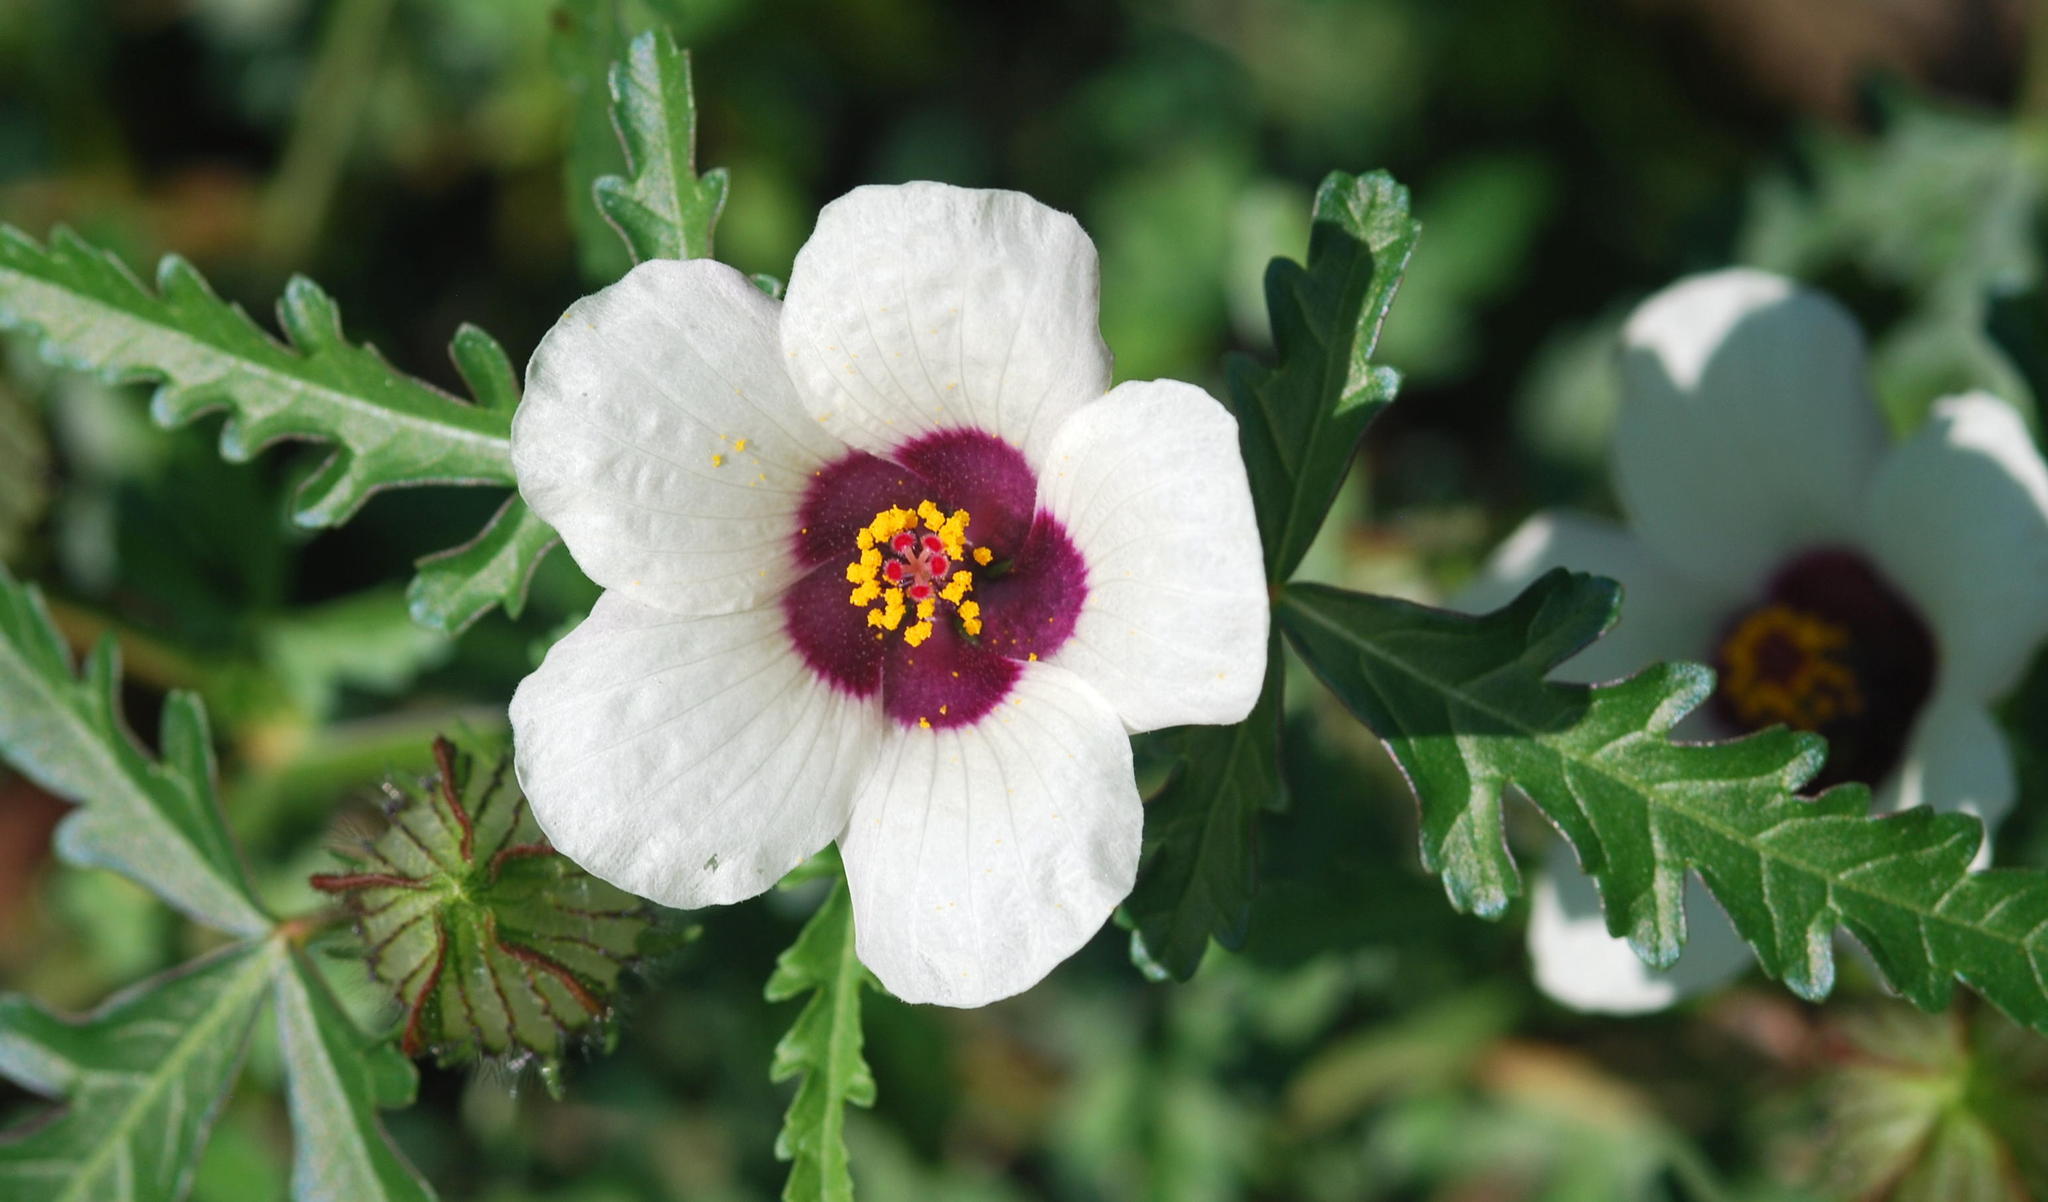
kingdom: Plantae
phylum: Tracheophyta
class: Magnoliopsida
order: Malvales
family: Malvaceae
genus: Hibiscus
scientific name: Hibiscus trionum
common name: Bladder ketmia
